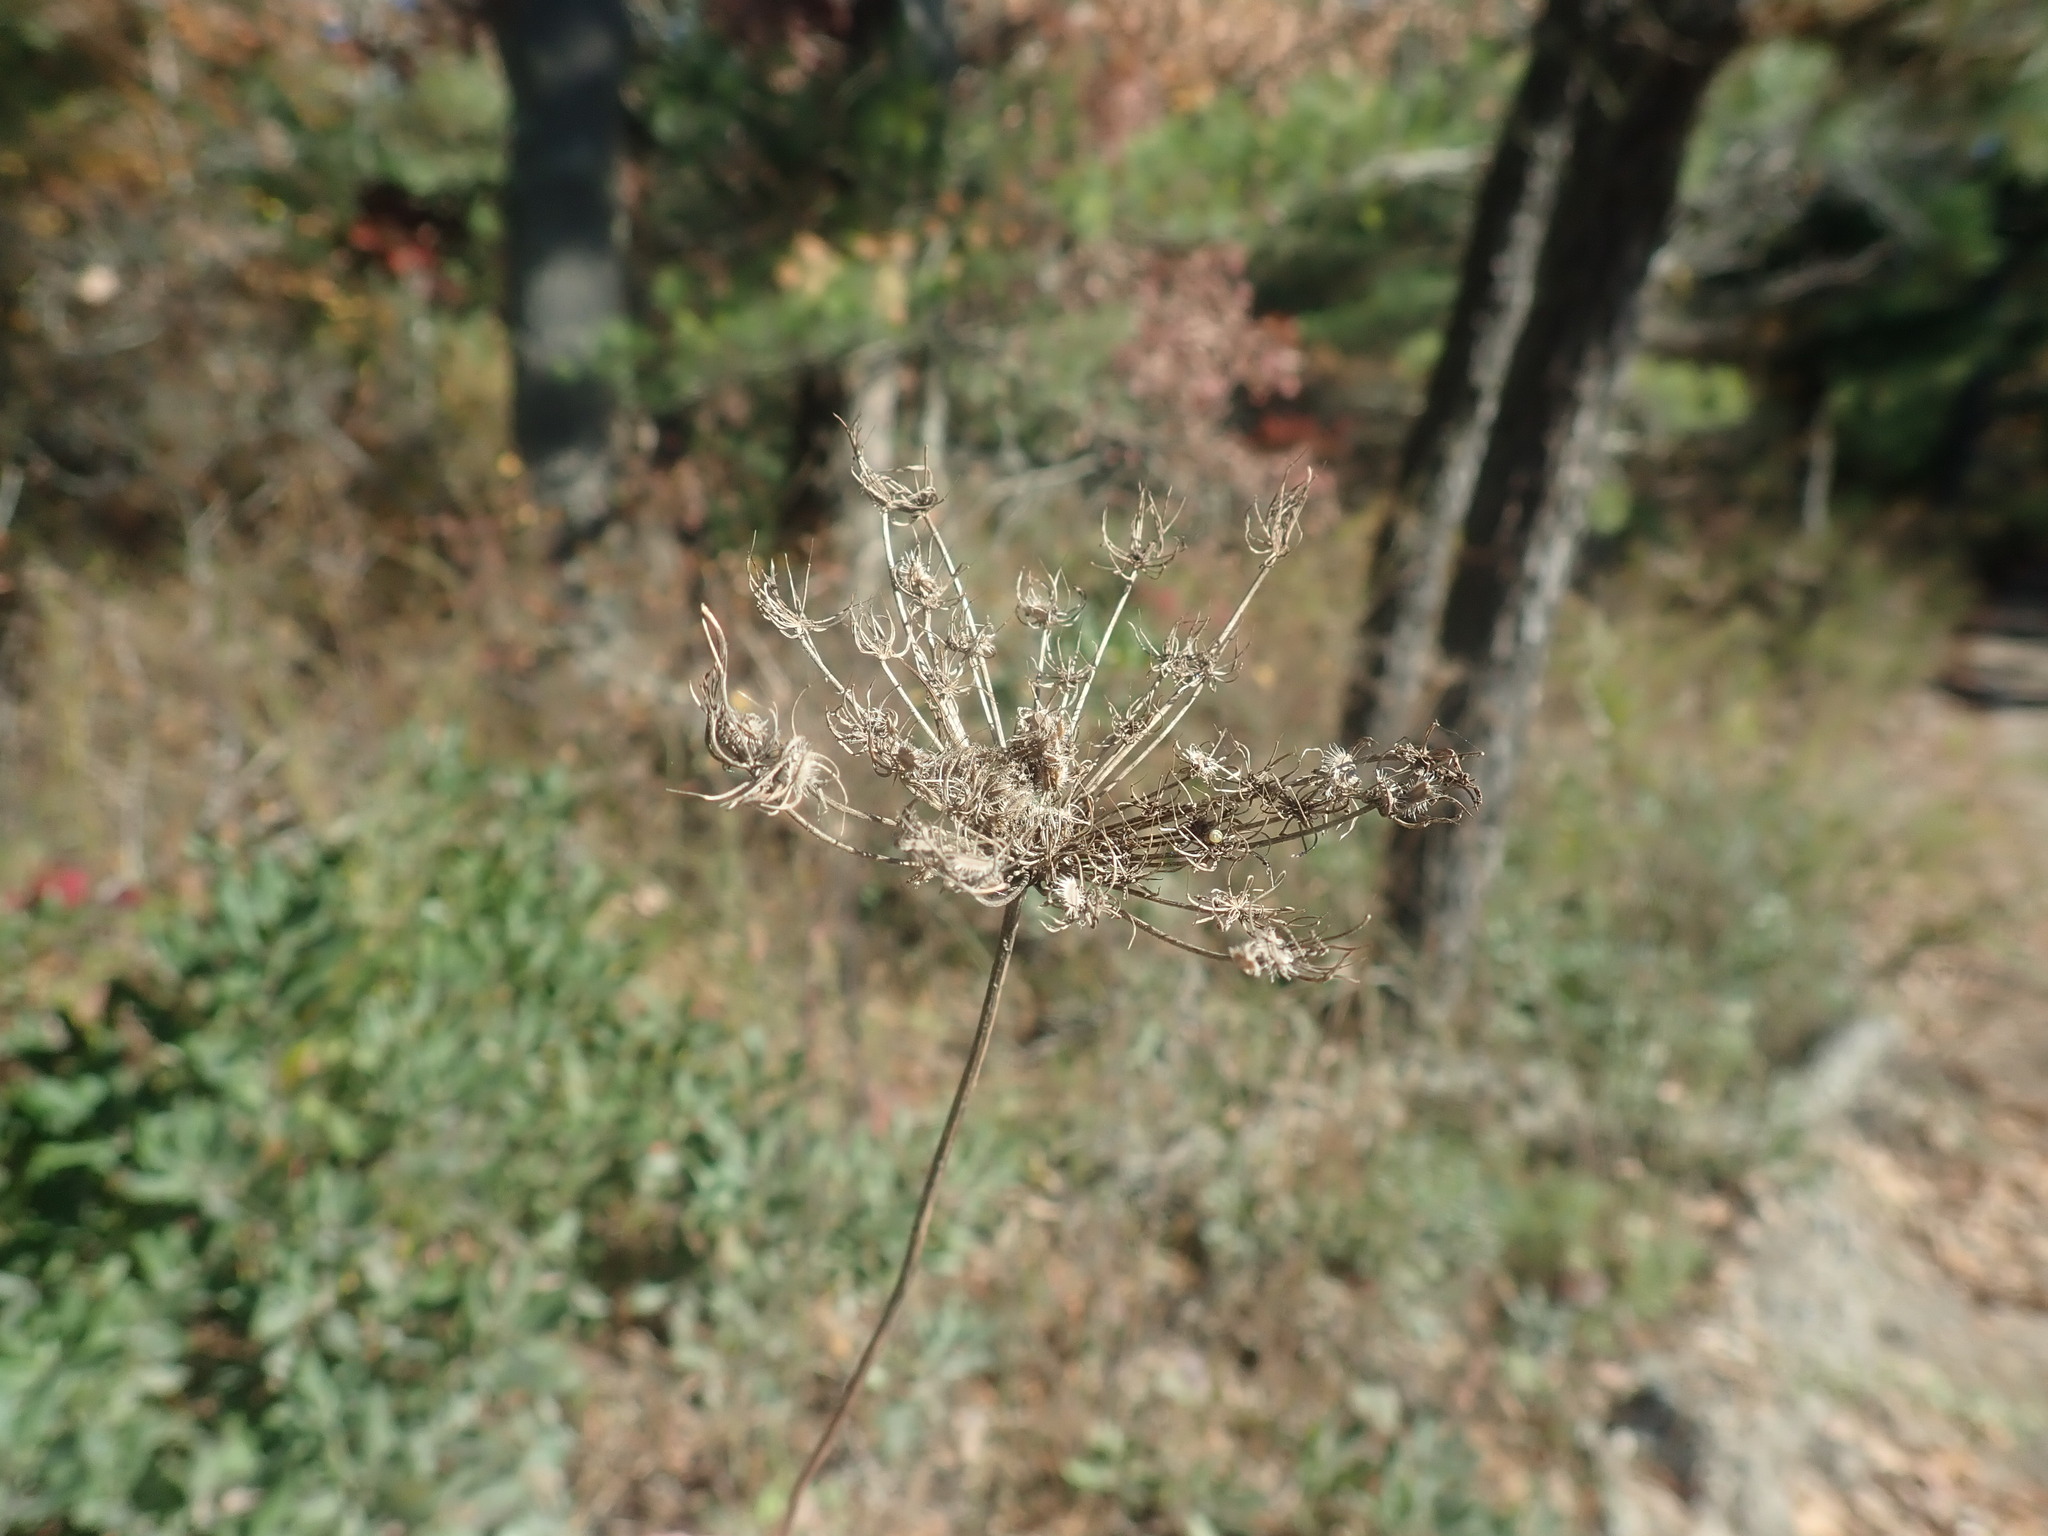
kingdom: Plantae
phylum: Tracheophyta
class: Magnoliopsida
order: Apiales
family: Apiaceae
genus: Daucus
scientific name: Daucus carota
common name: Wild carrot
